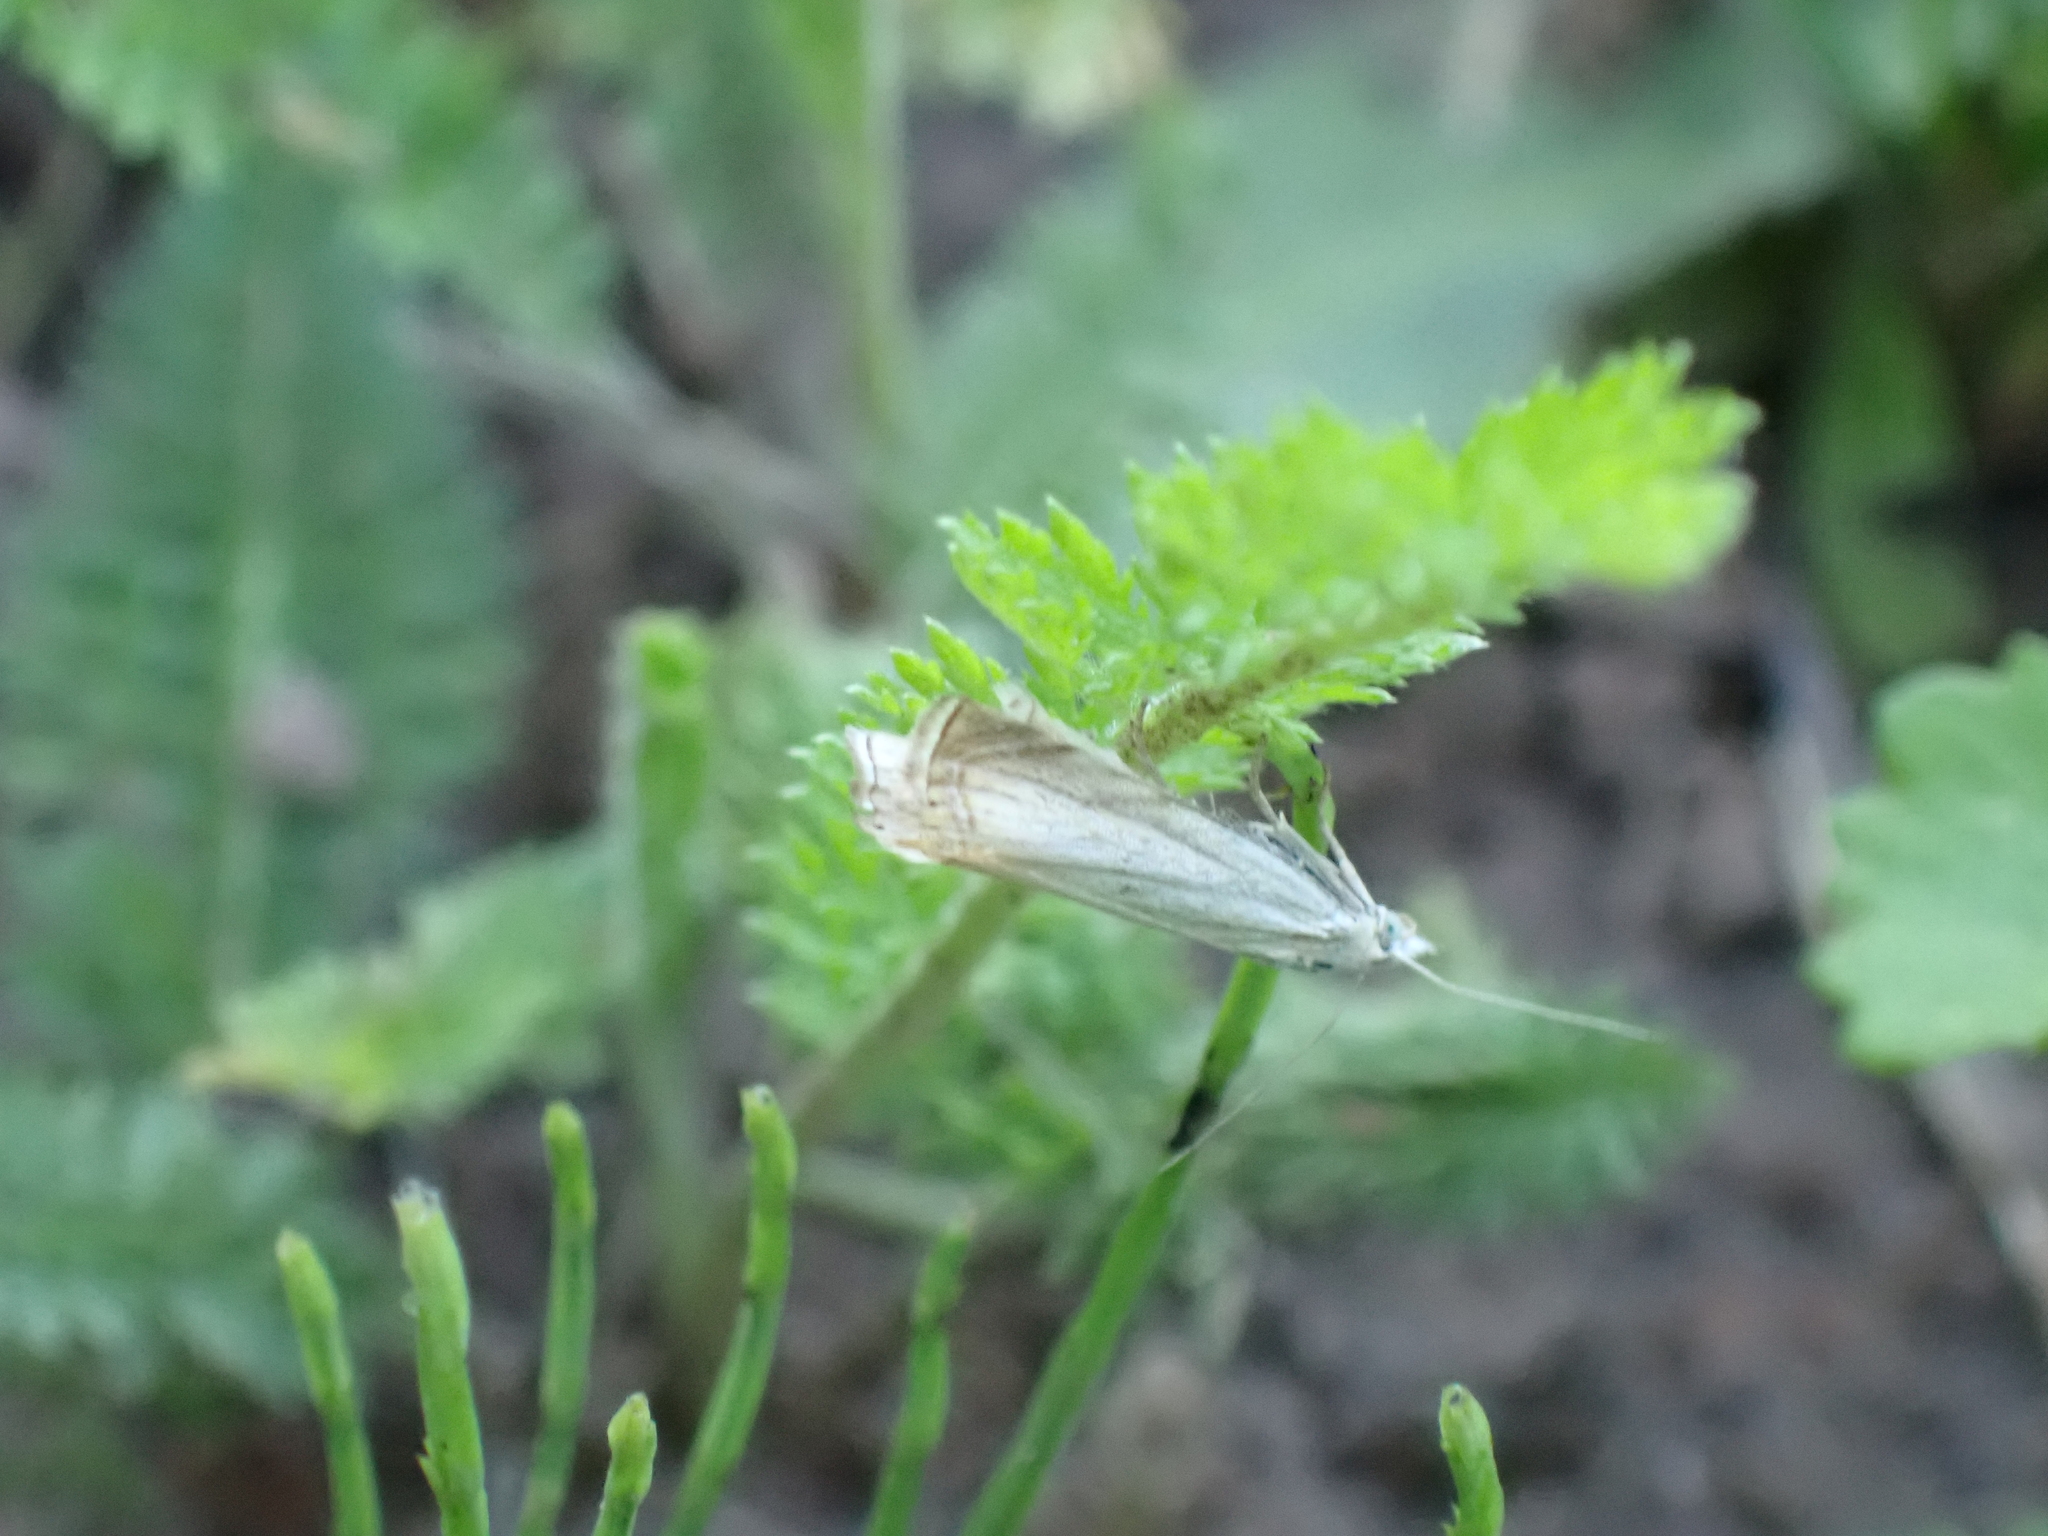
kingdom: Animalia
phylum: Arthropoda
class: Insecta
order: Lepidoptera
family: Crambidae
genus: Chrysoteuchia
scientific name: Chrysoteuchia culmella
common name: Garden grass-veneer
